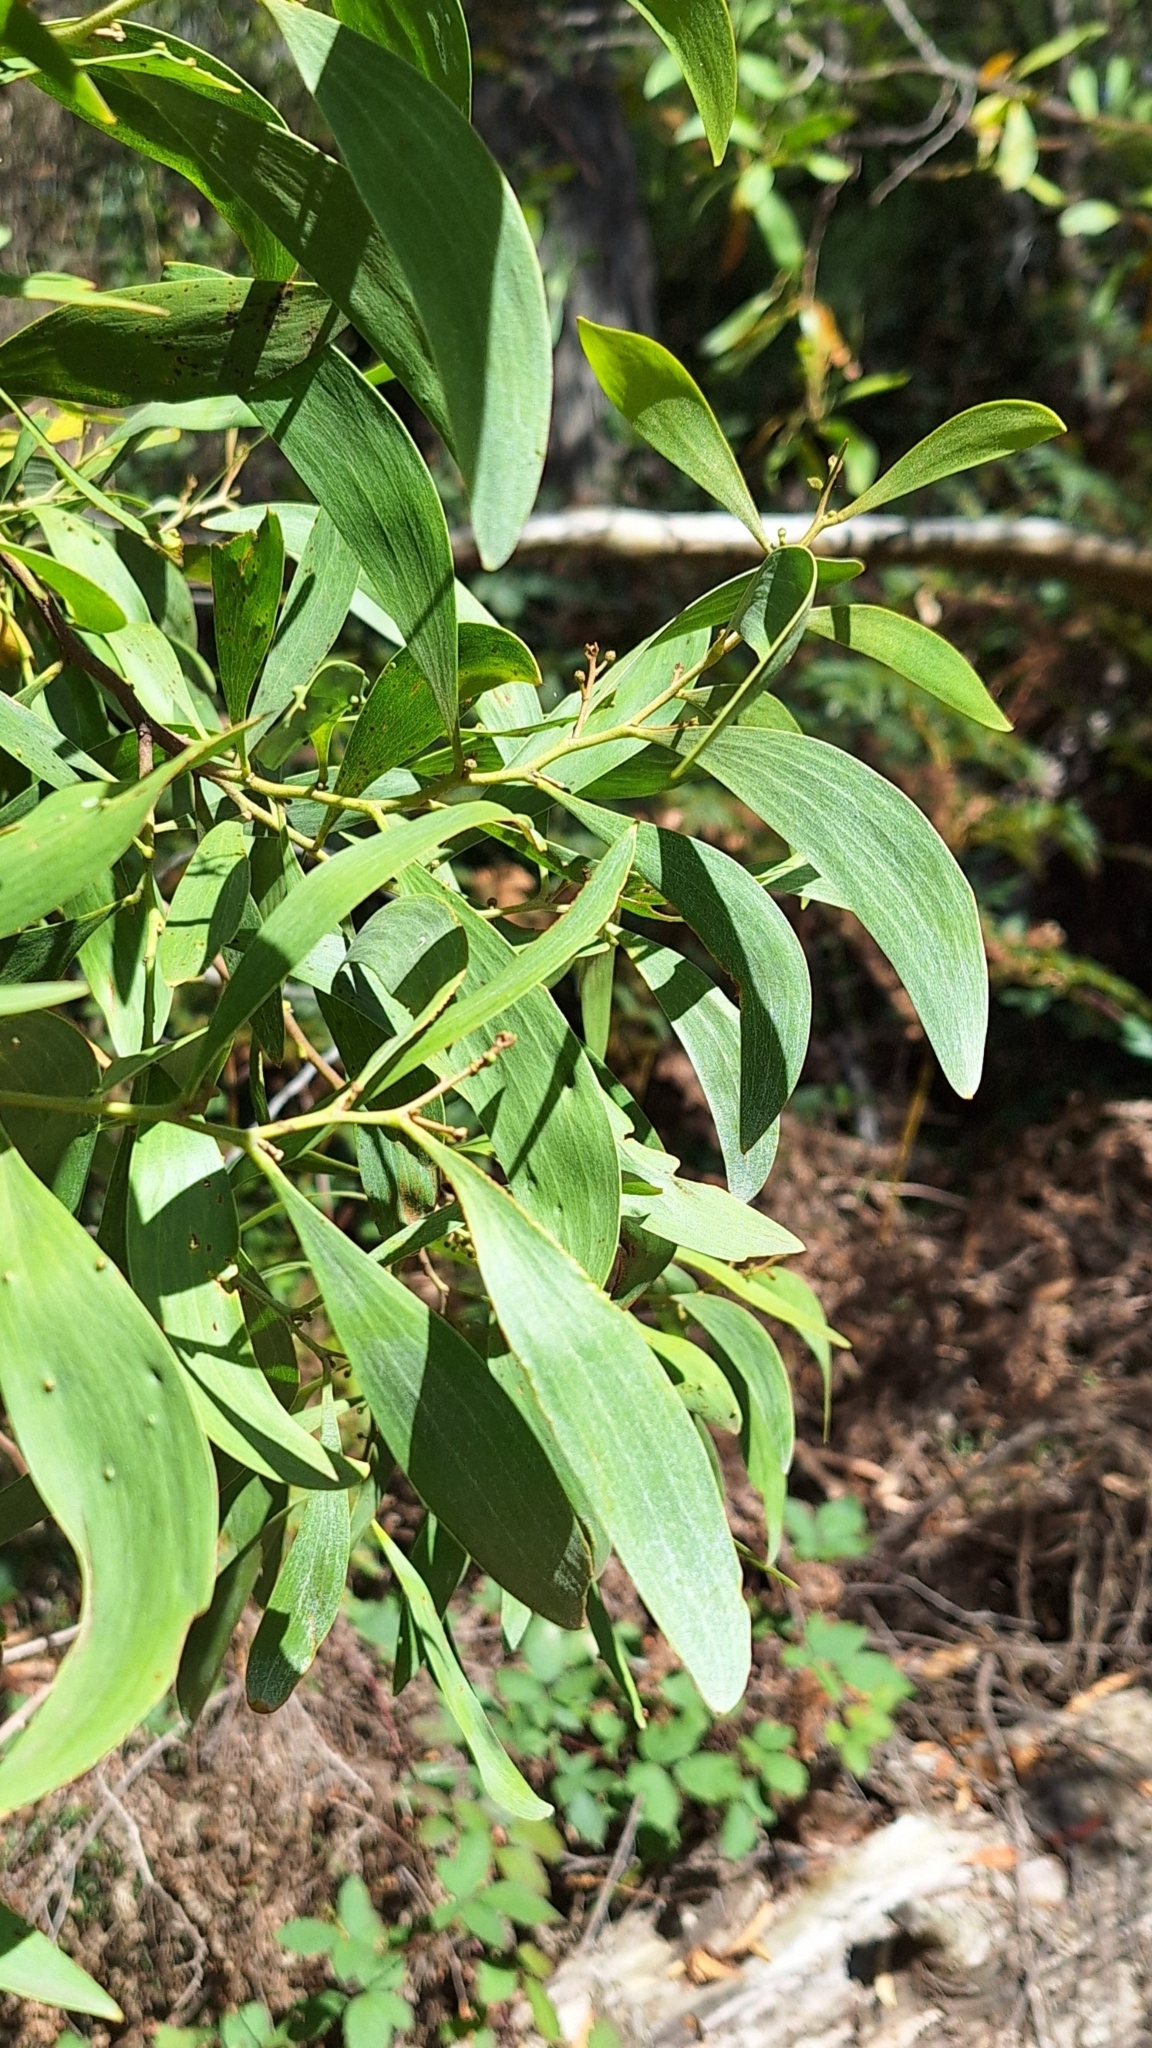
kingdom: Plantae
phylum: Tracheophyta
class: Magnoliopsida
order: Fabales
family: Fabaceae
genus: Acacia
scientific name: Acacia melanoxylon
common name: Blackwood
